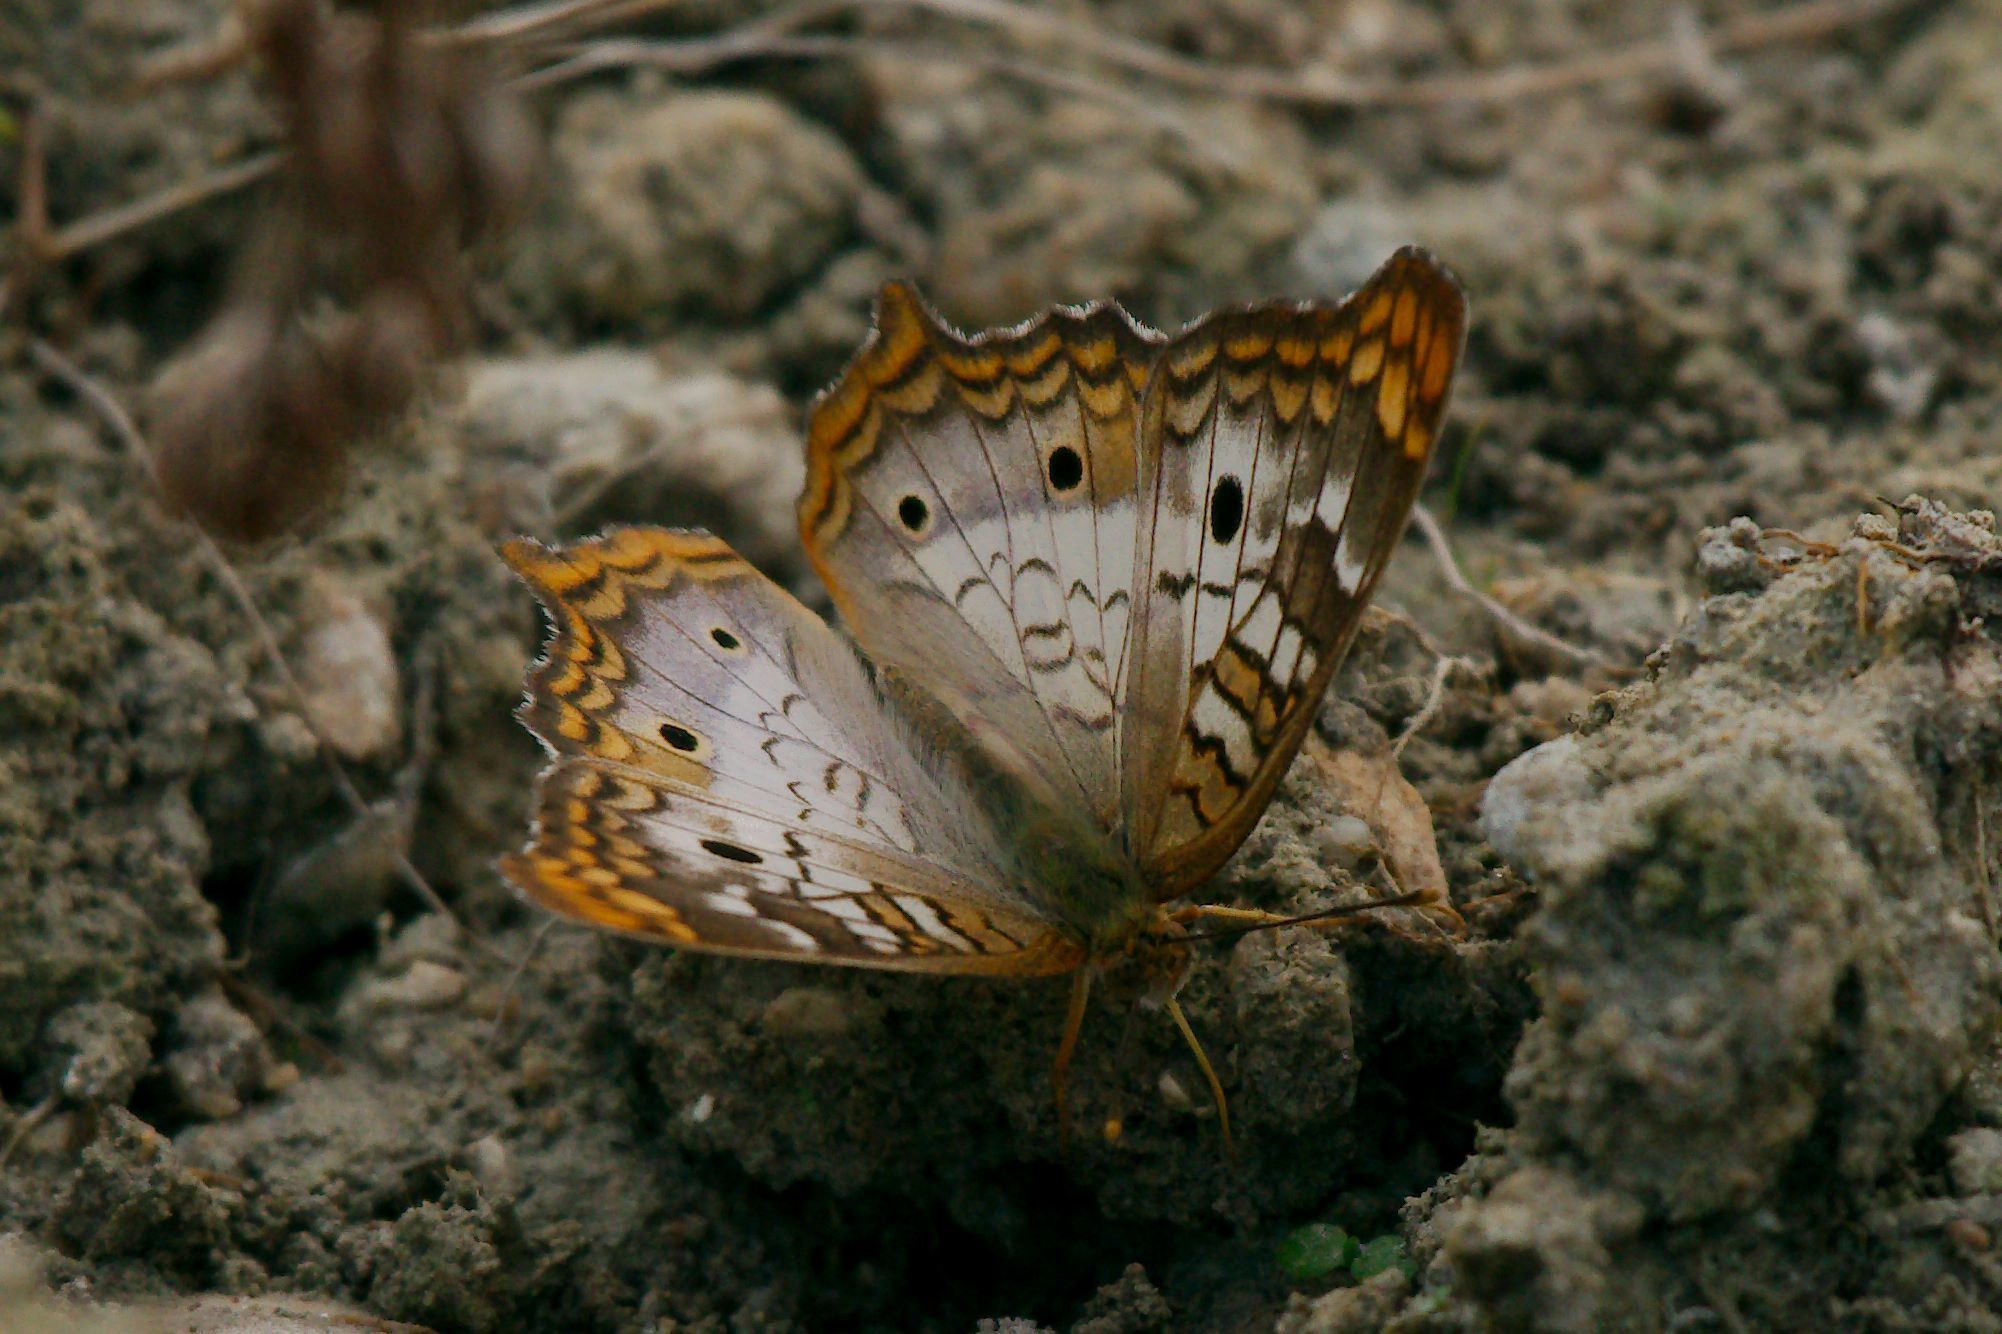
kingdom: Animalia
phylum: Arthropoda
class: Insecta
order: Lepidoptera
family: Nymphalidae
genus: Anartia
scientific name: Anartia jatrophae
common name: White peacock
